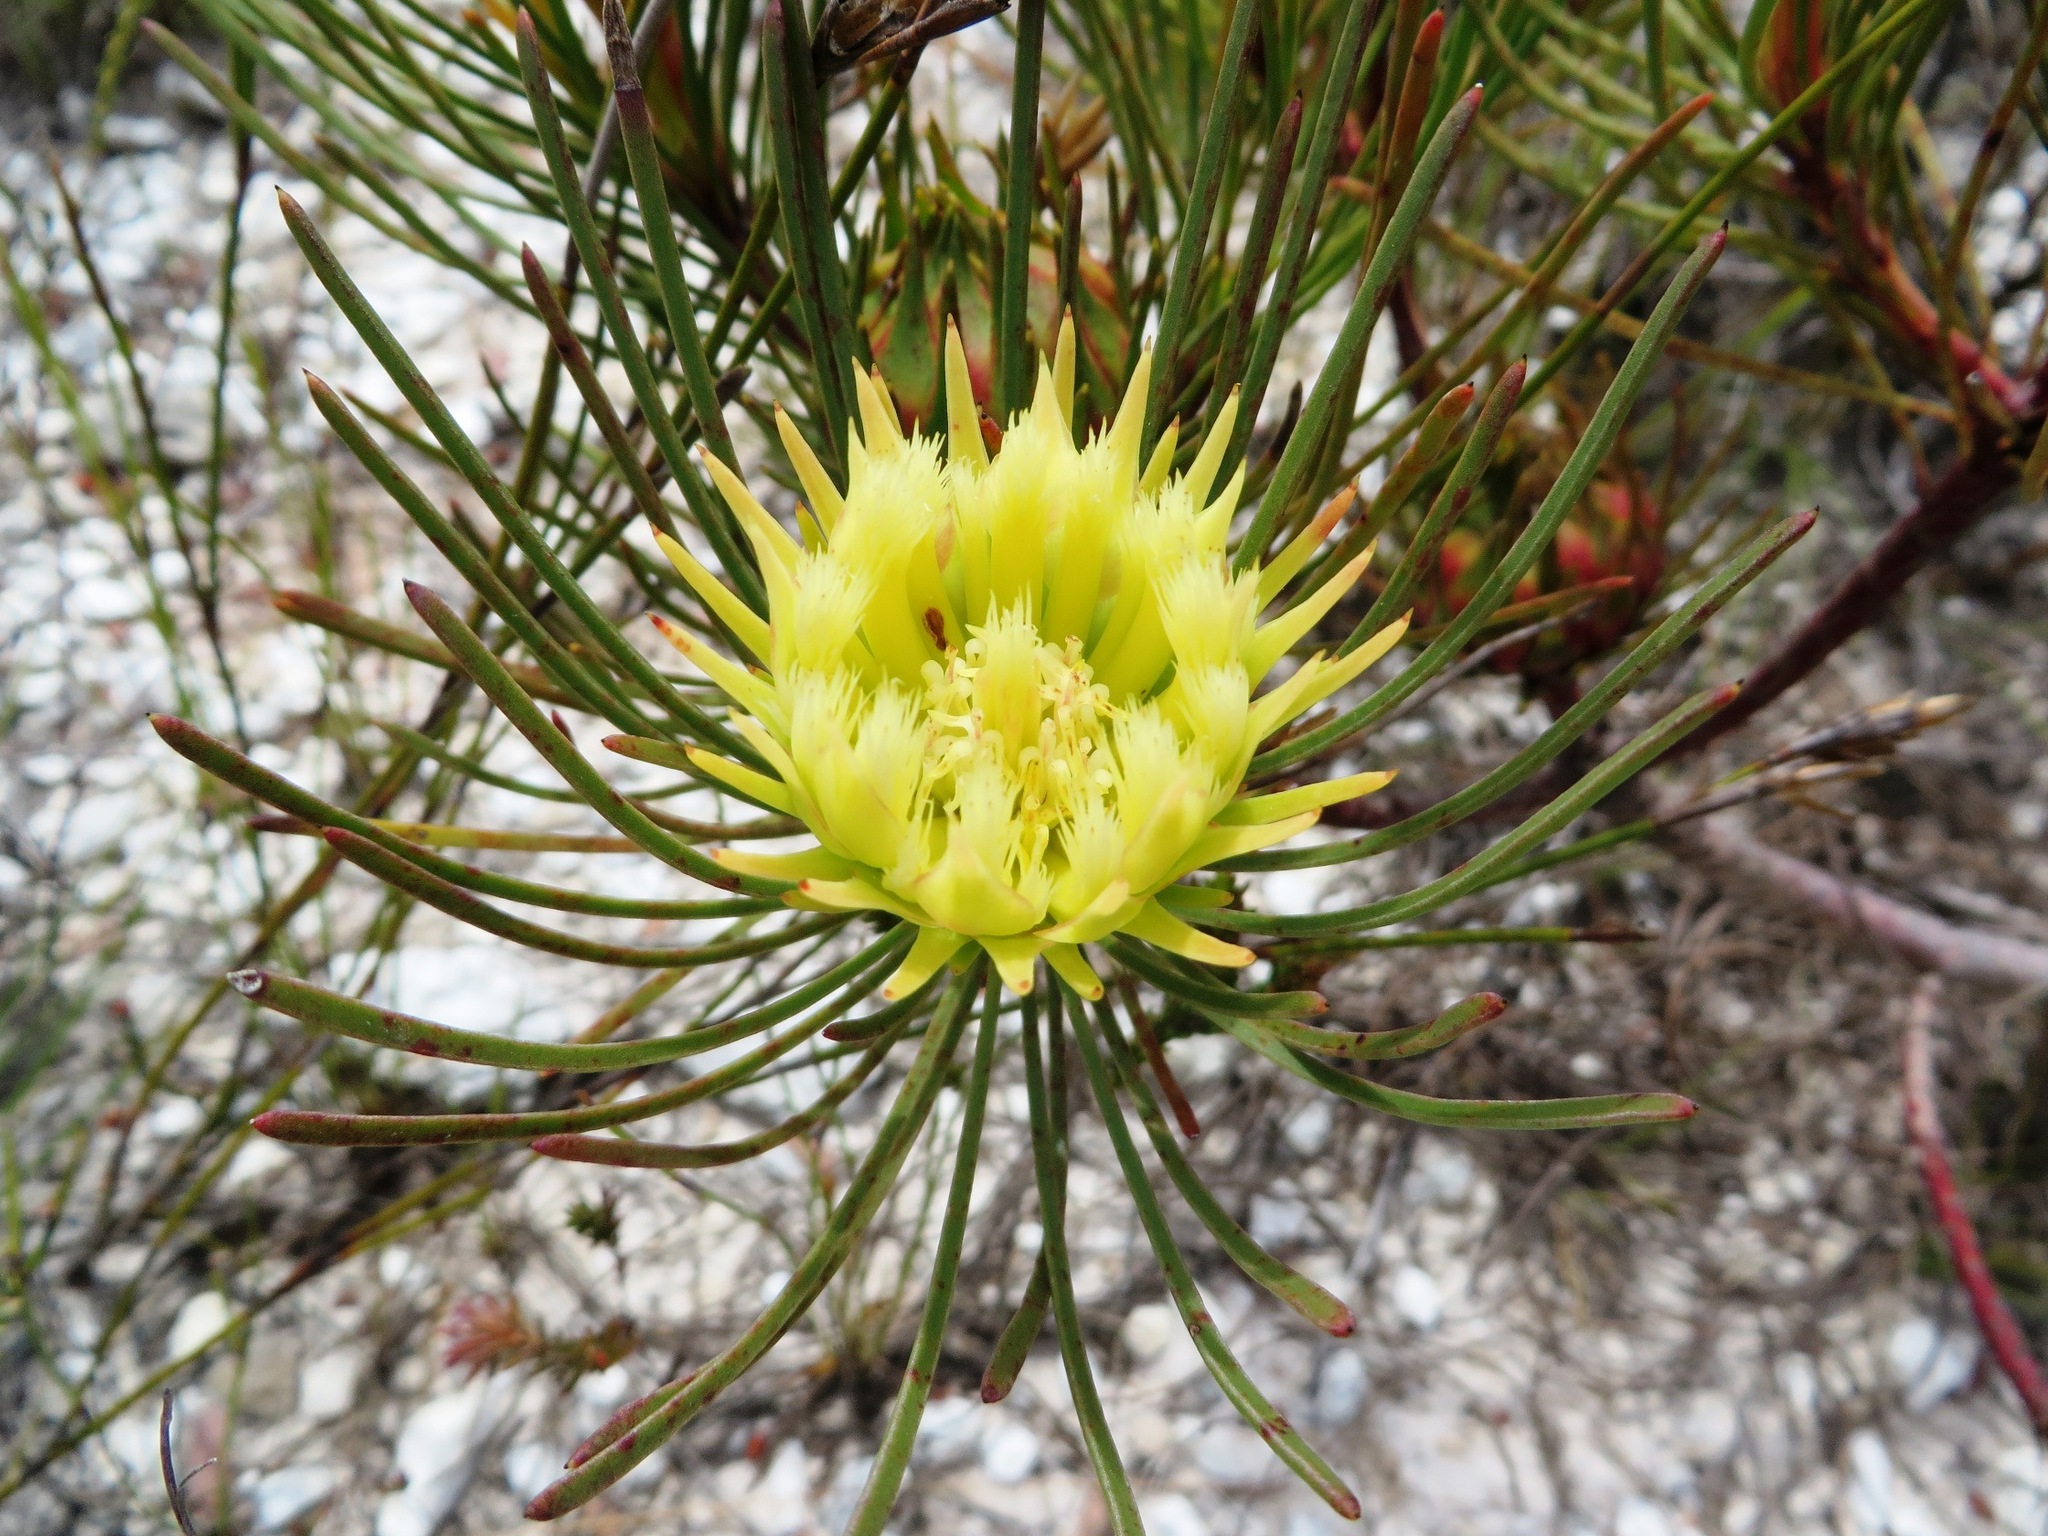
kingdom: Plantae
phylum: Tracheophyta
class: Magnoliopsida
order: Proteales
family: Proteaceae
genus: Aulax
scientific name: Aulax cancellata
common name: Channel-leaf featherbush
